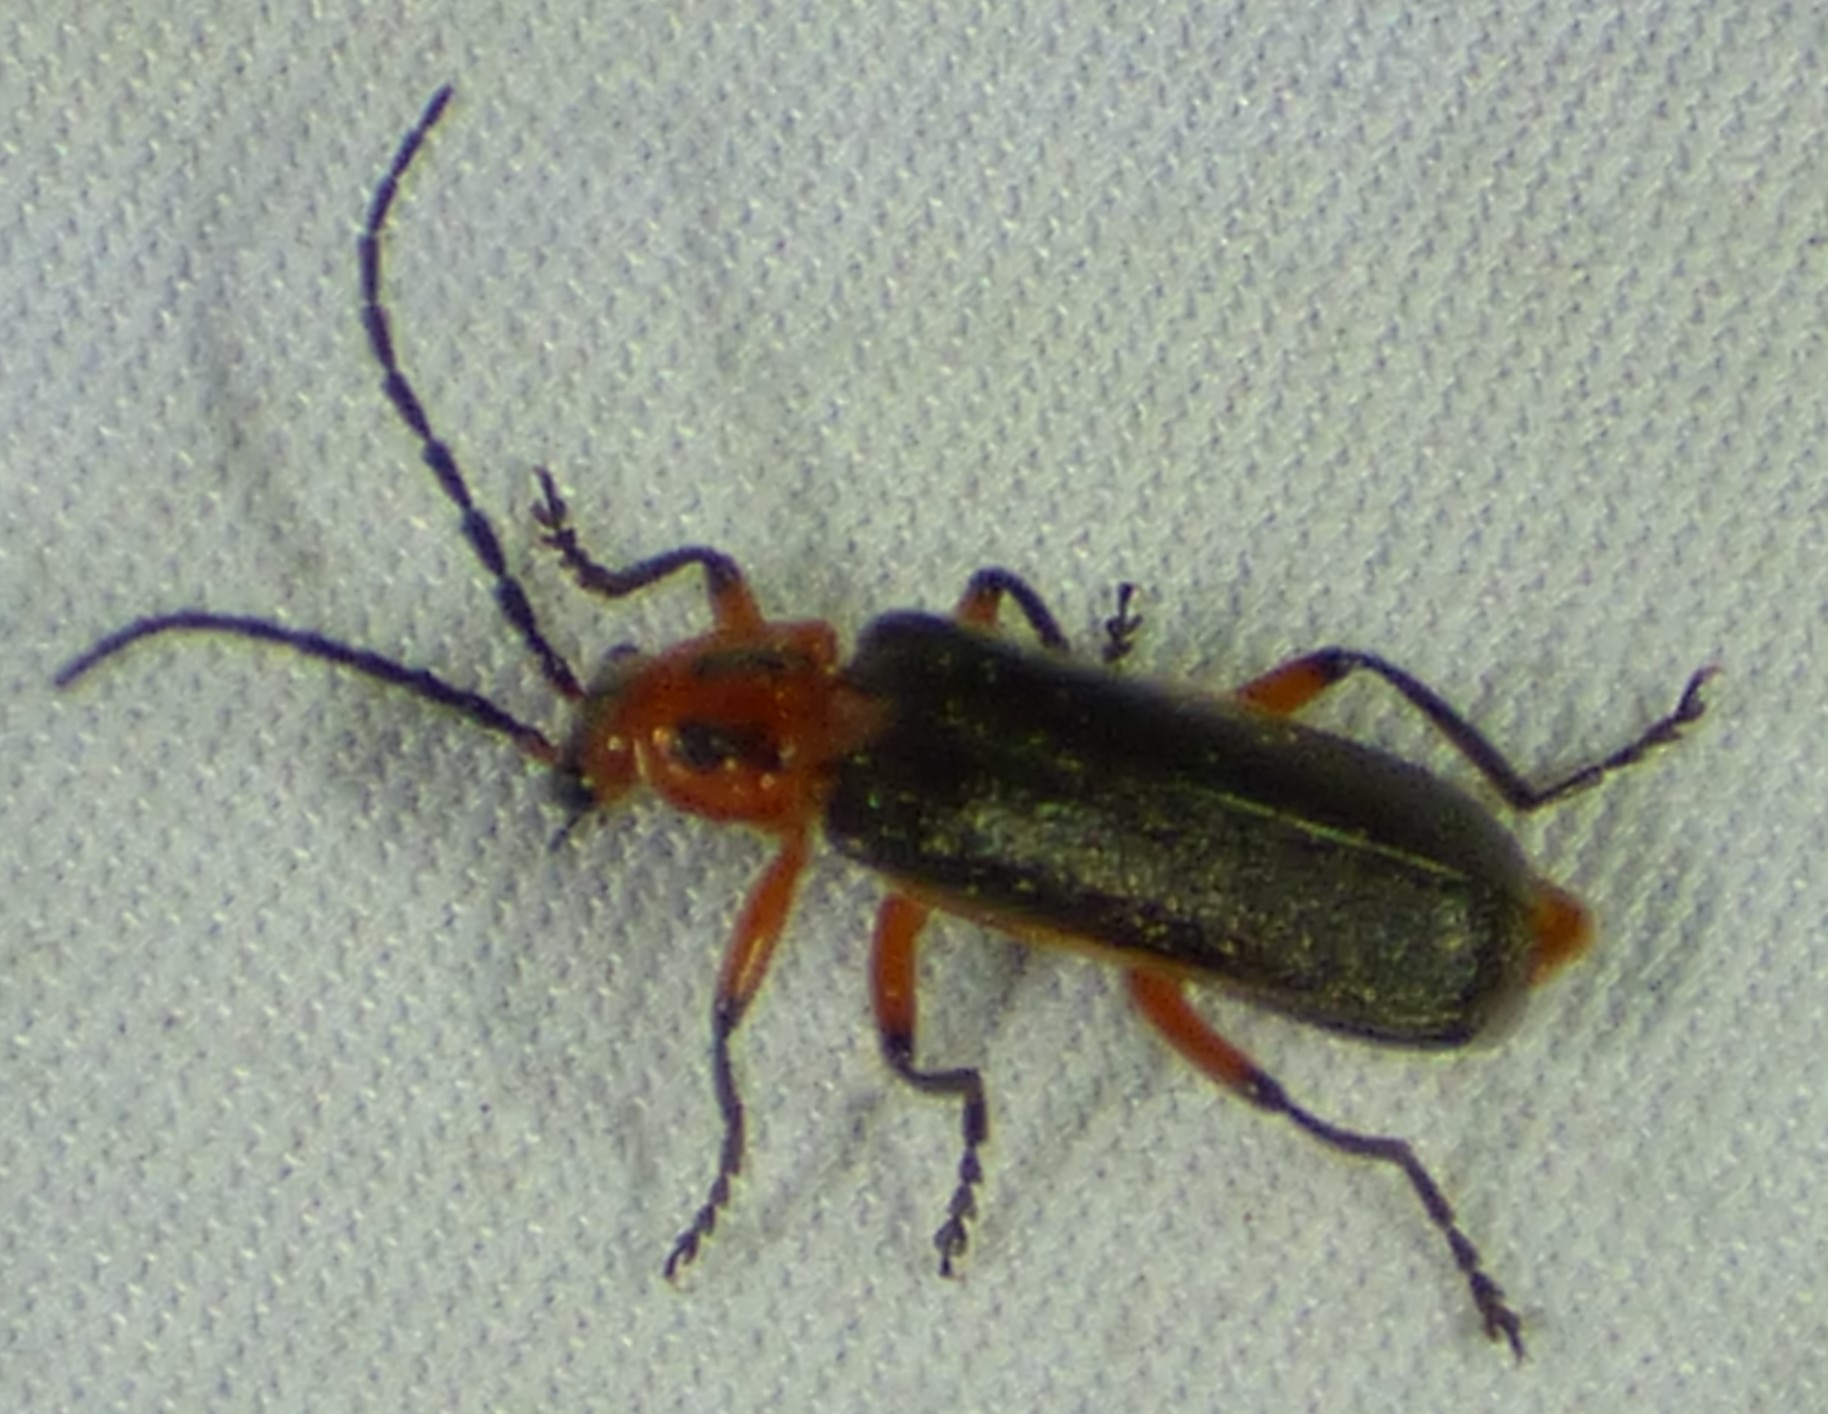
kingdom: Animalia
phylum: Arthropoda
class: Insecta
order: Coleoptera
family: Cantharidae
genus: Atalantycha
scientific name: Atalantycha bilineata
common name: Two-lined leatherwing
